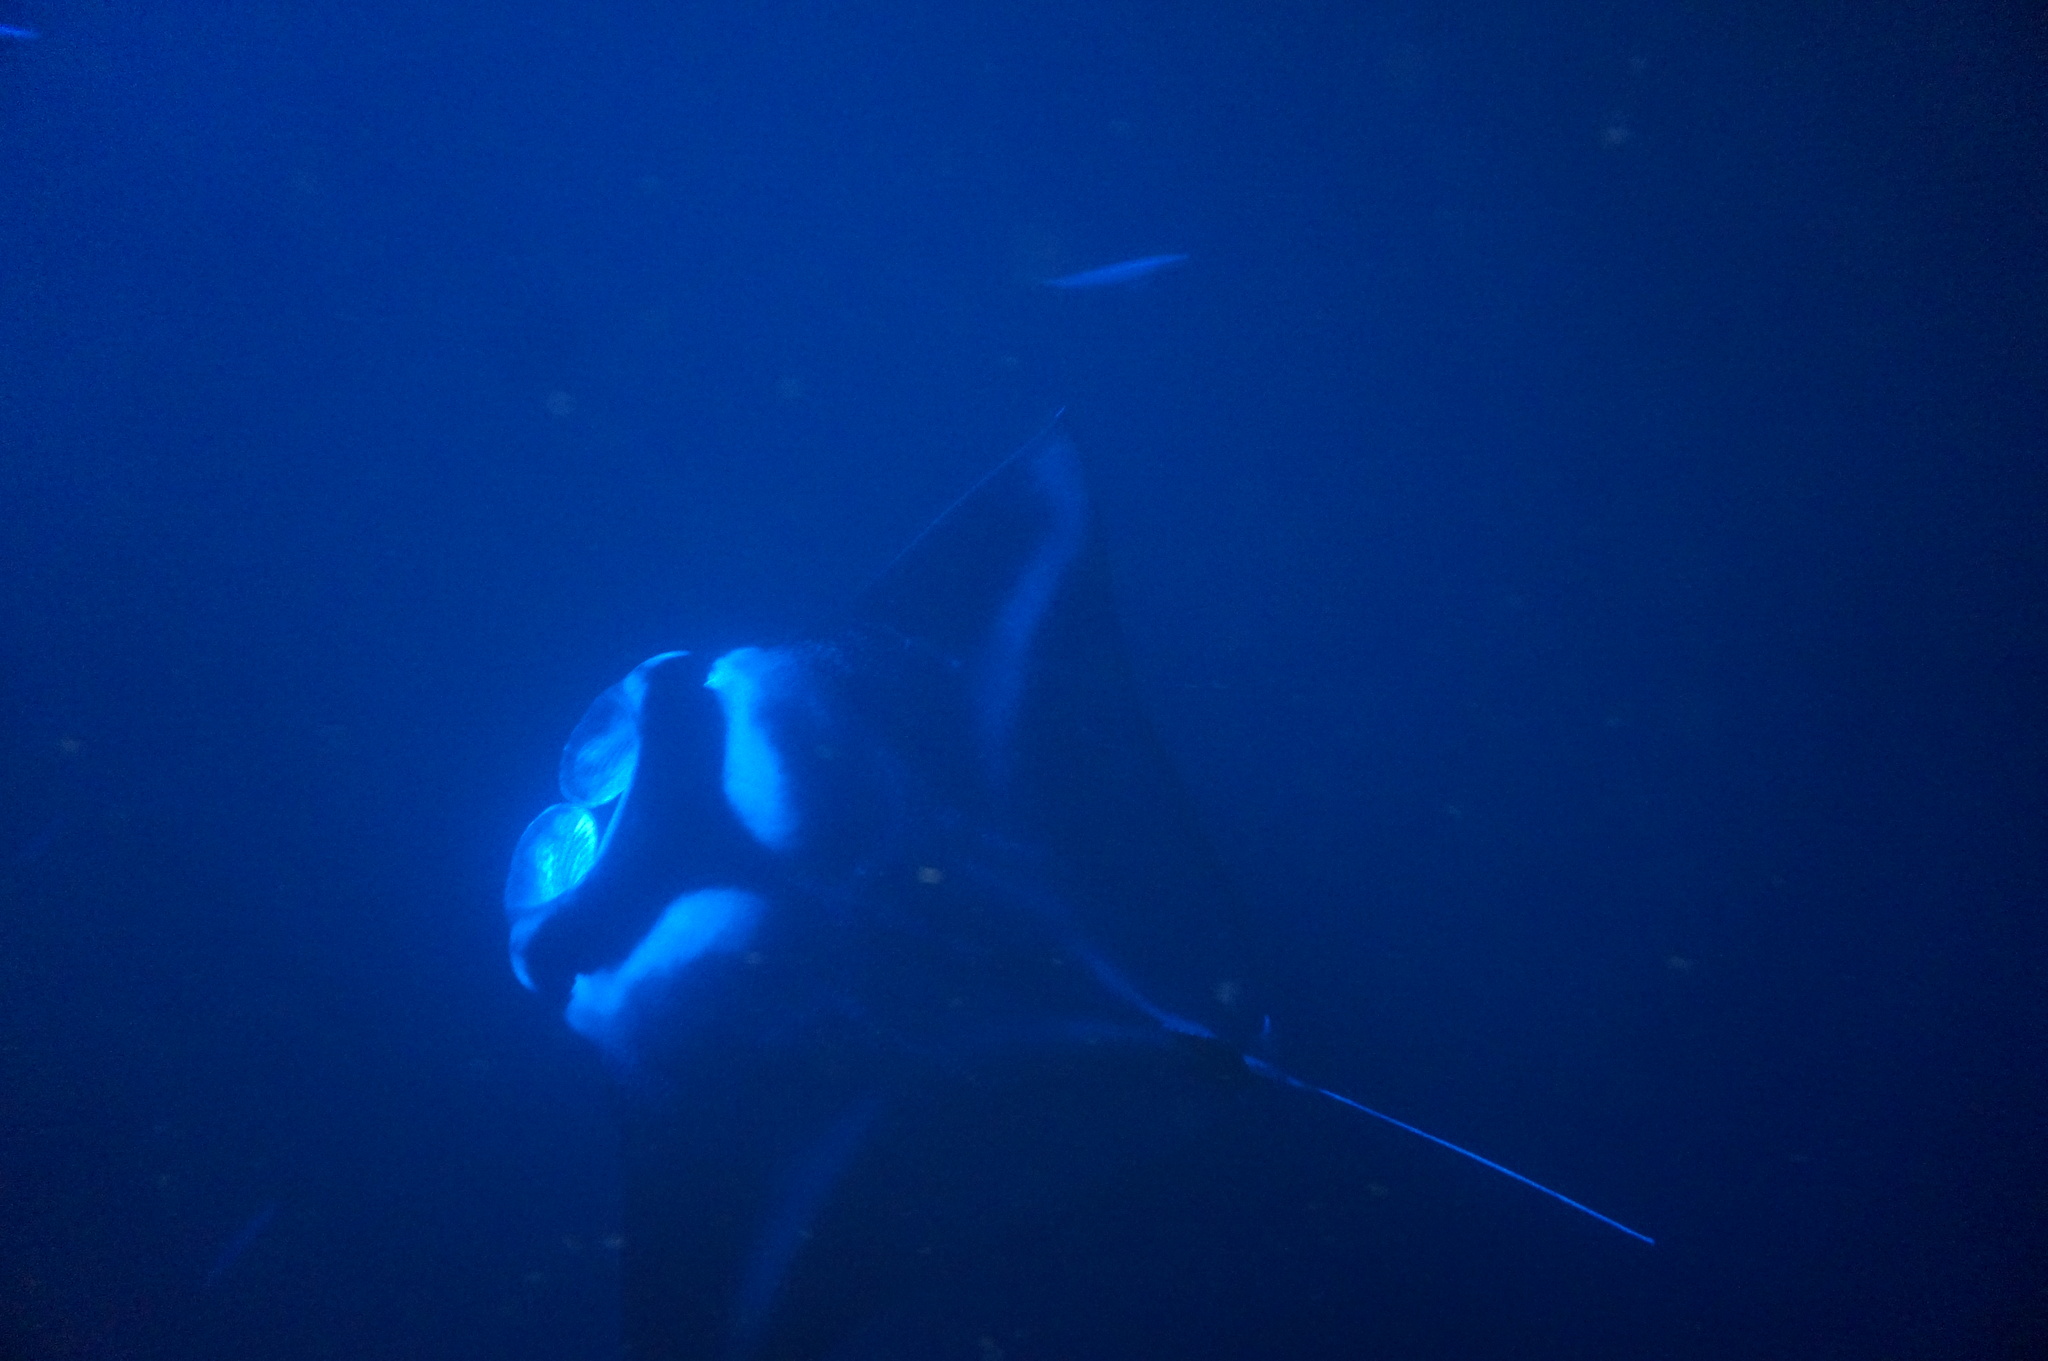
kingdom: Animalia
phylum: Chordata
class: Elasmobranchii
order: Myliobatiformes
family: Myliobatidae
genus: Mobula
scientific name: Mobula alfredi
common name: Reef manta ray
